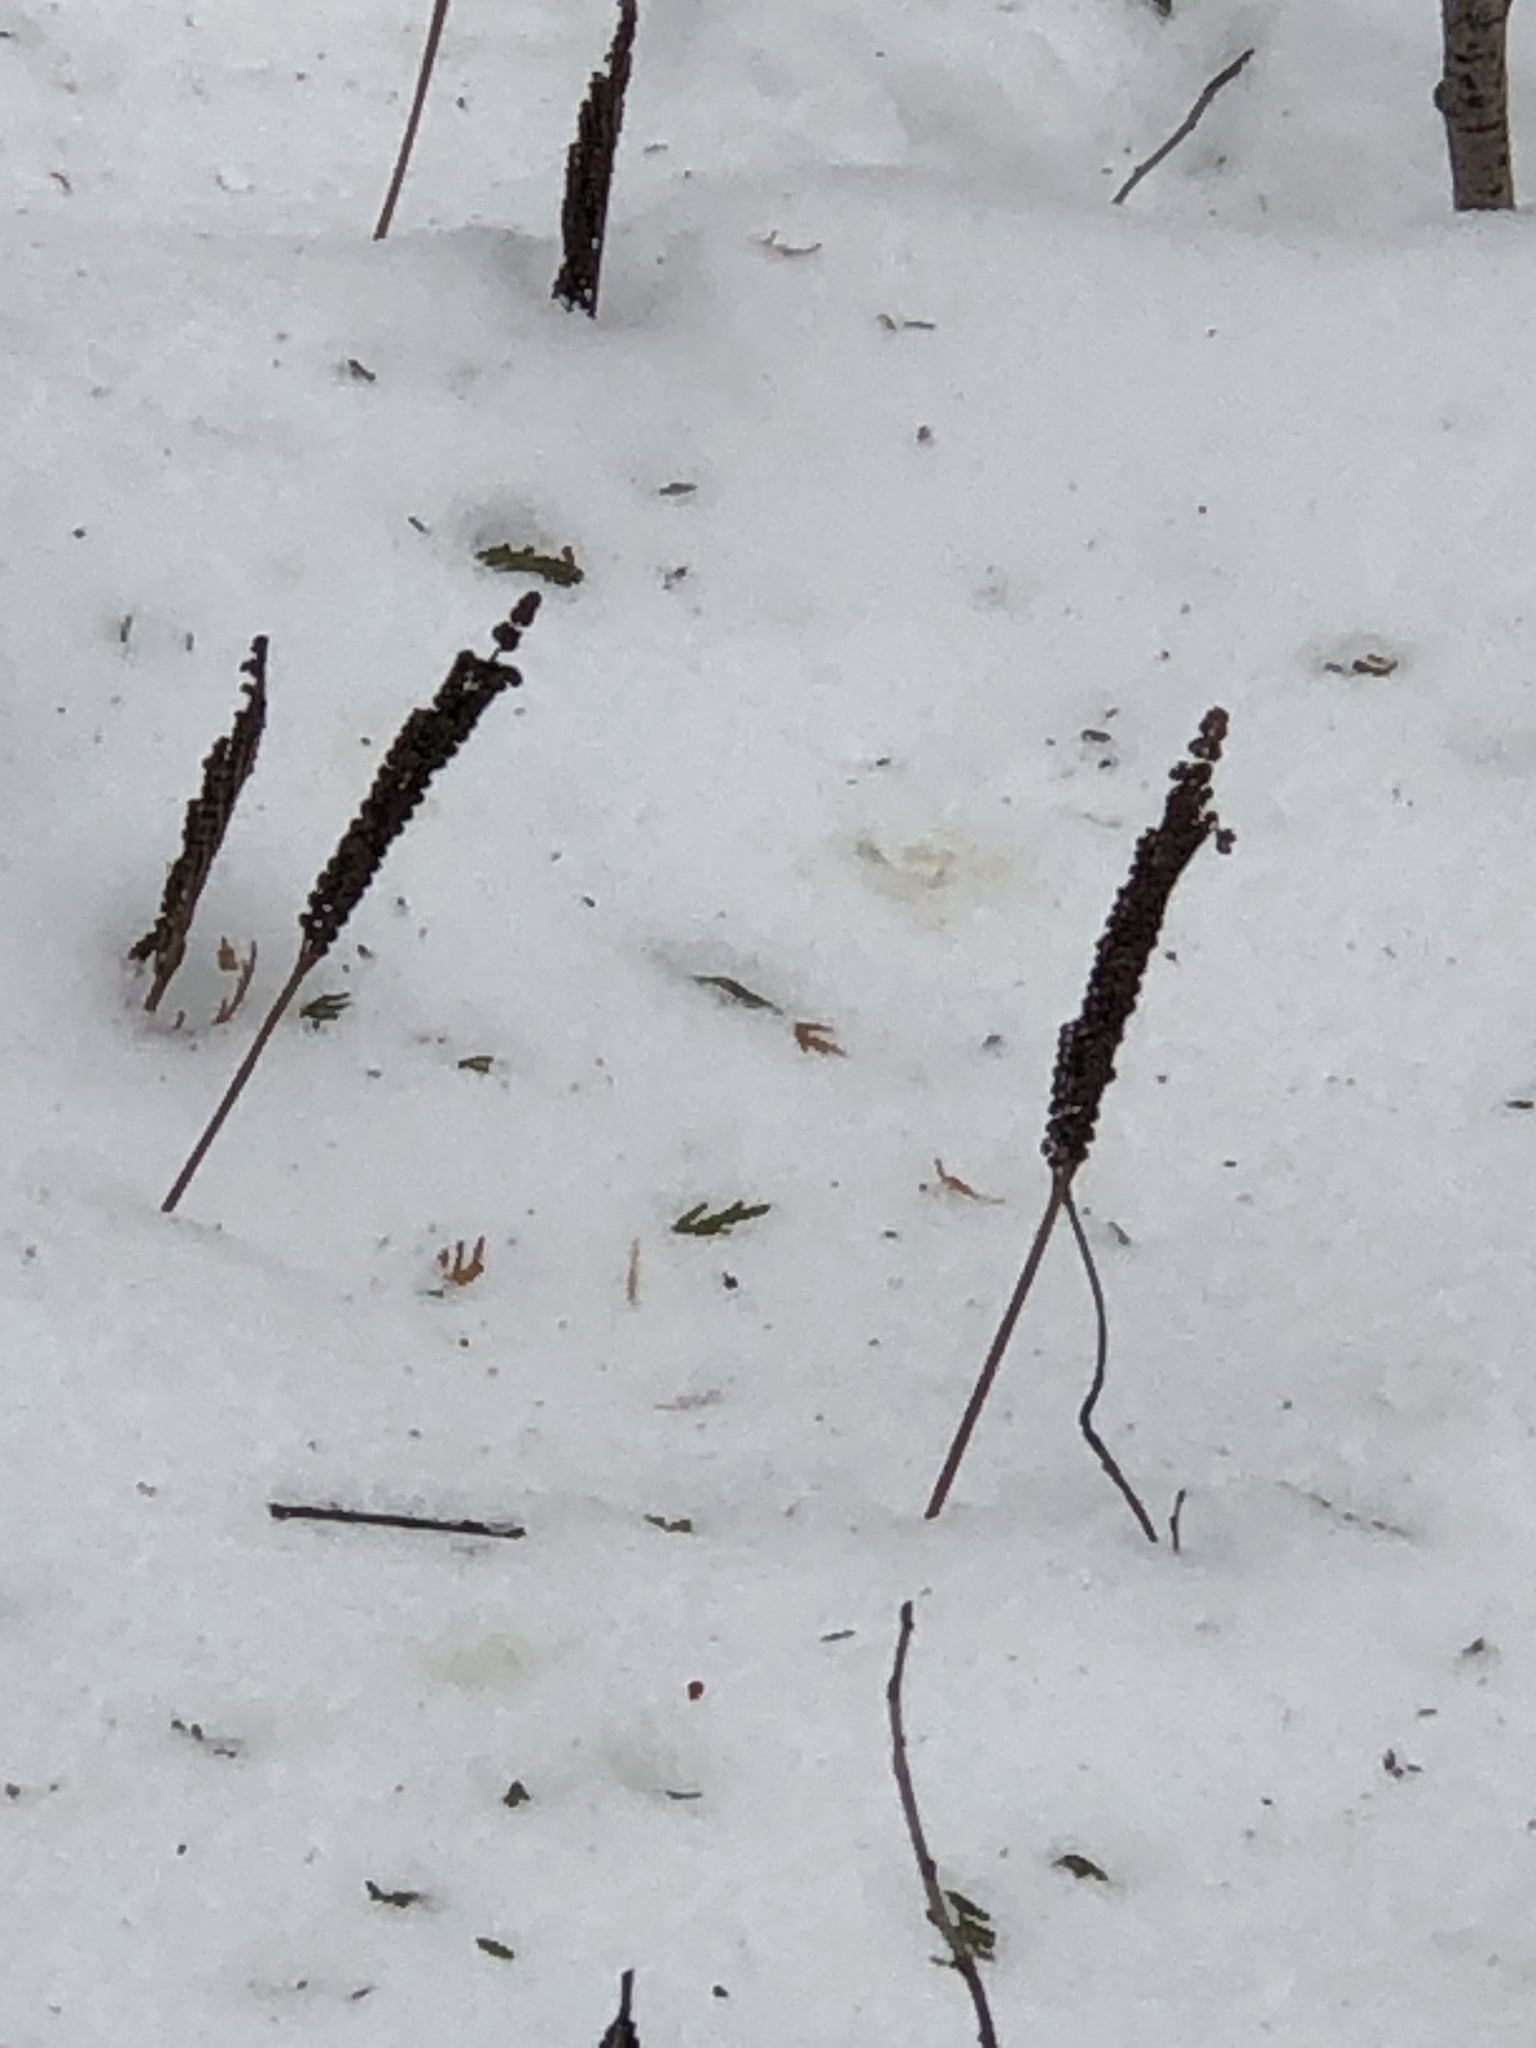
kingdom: Plantae
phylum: Tracheophyta
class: Polypodiopsida
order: Polypodiales
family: Onocleaceae
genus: Onoclea
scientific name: Onoclea sensibilis
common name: Sensitive fern
